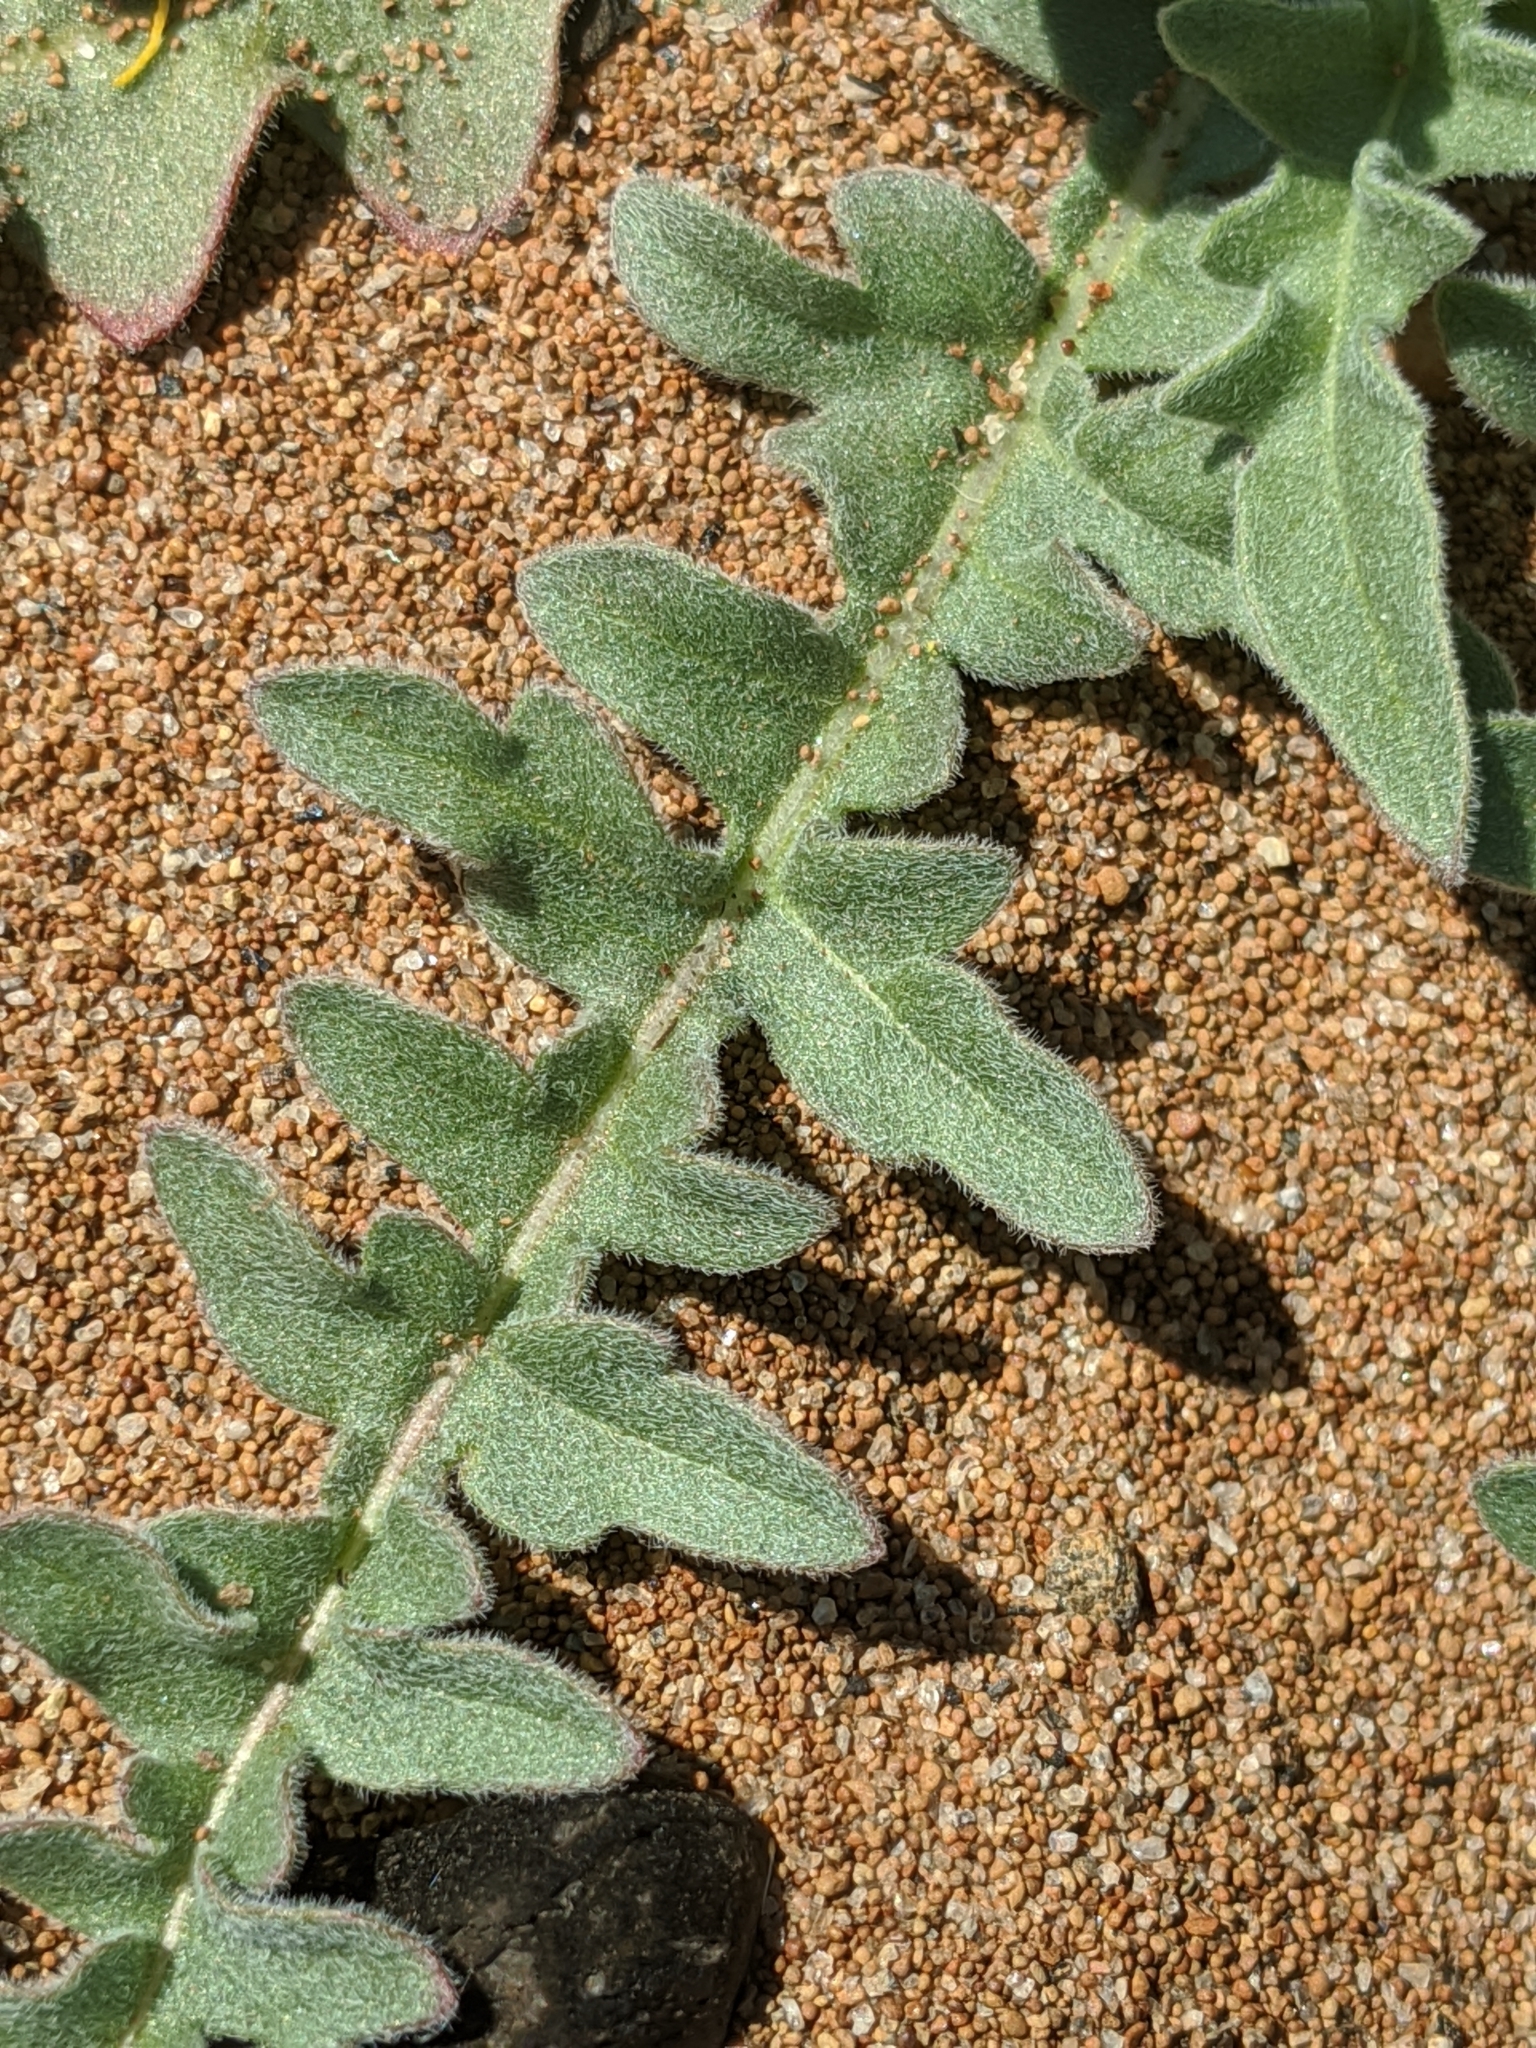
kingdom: Plantae
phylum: Tracheophyta
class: Magnoliopsida
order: Myrtales
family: Onagraceae
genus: Taraxia
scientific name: Taraxia tanacetifolia
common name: Tansyleaf evening primrose
